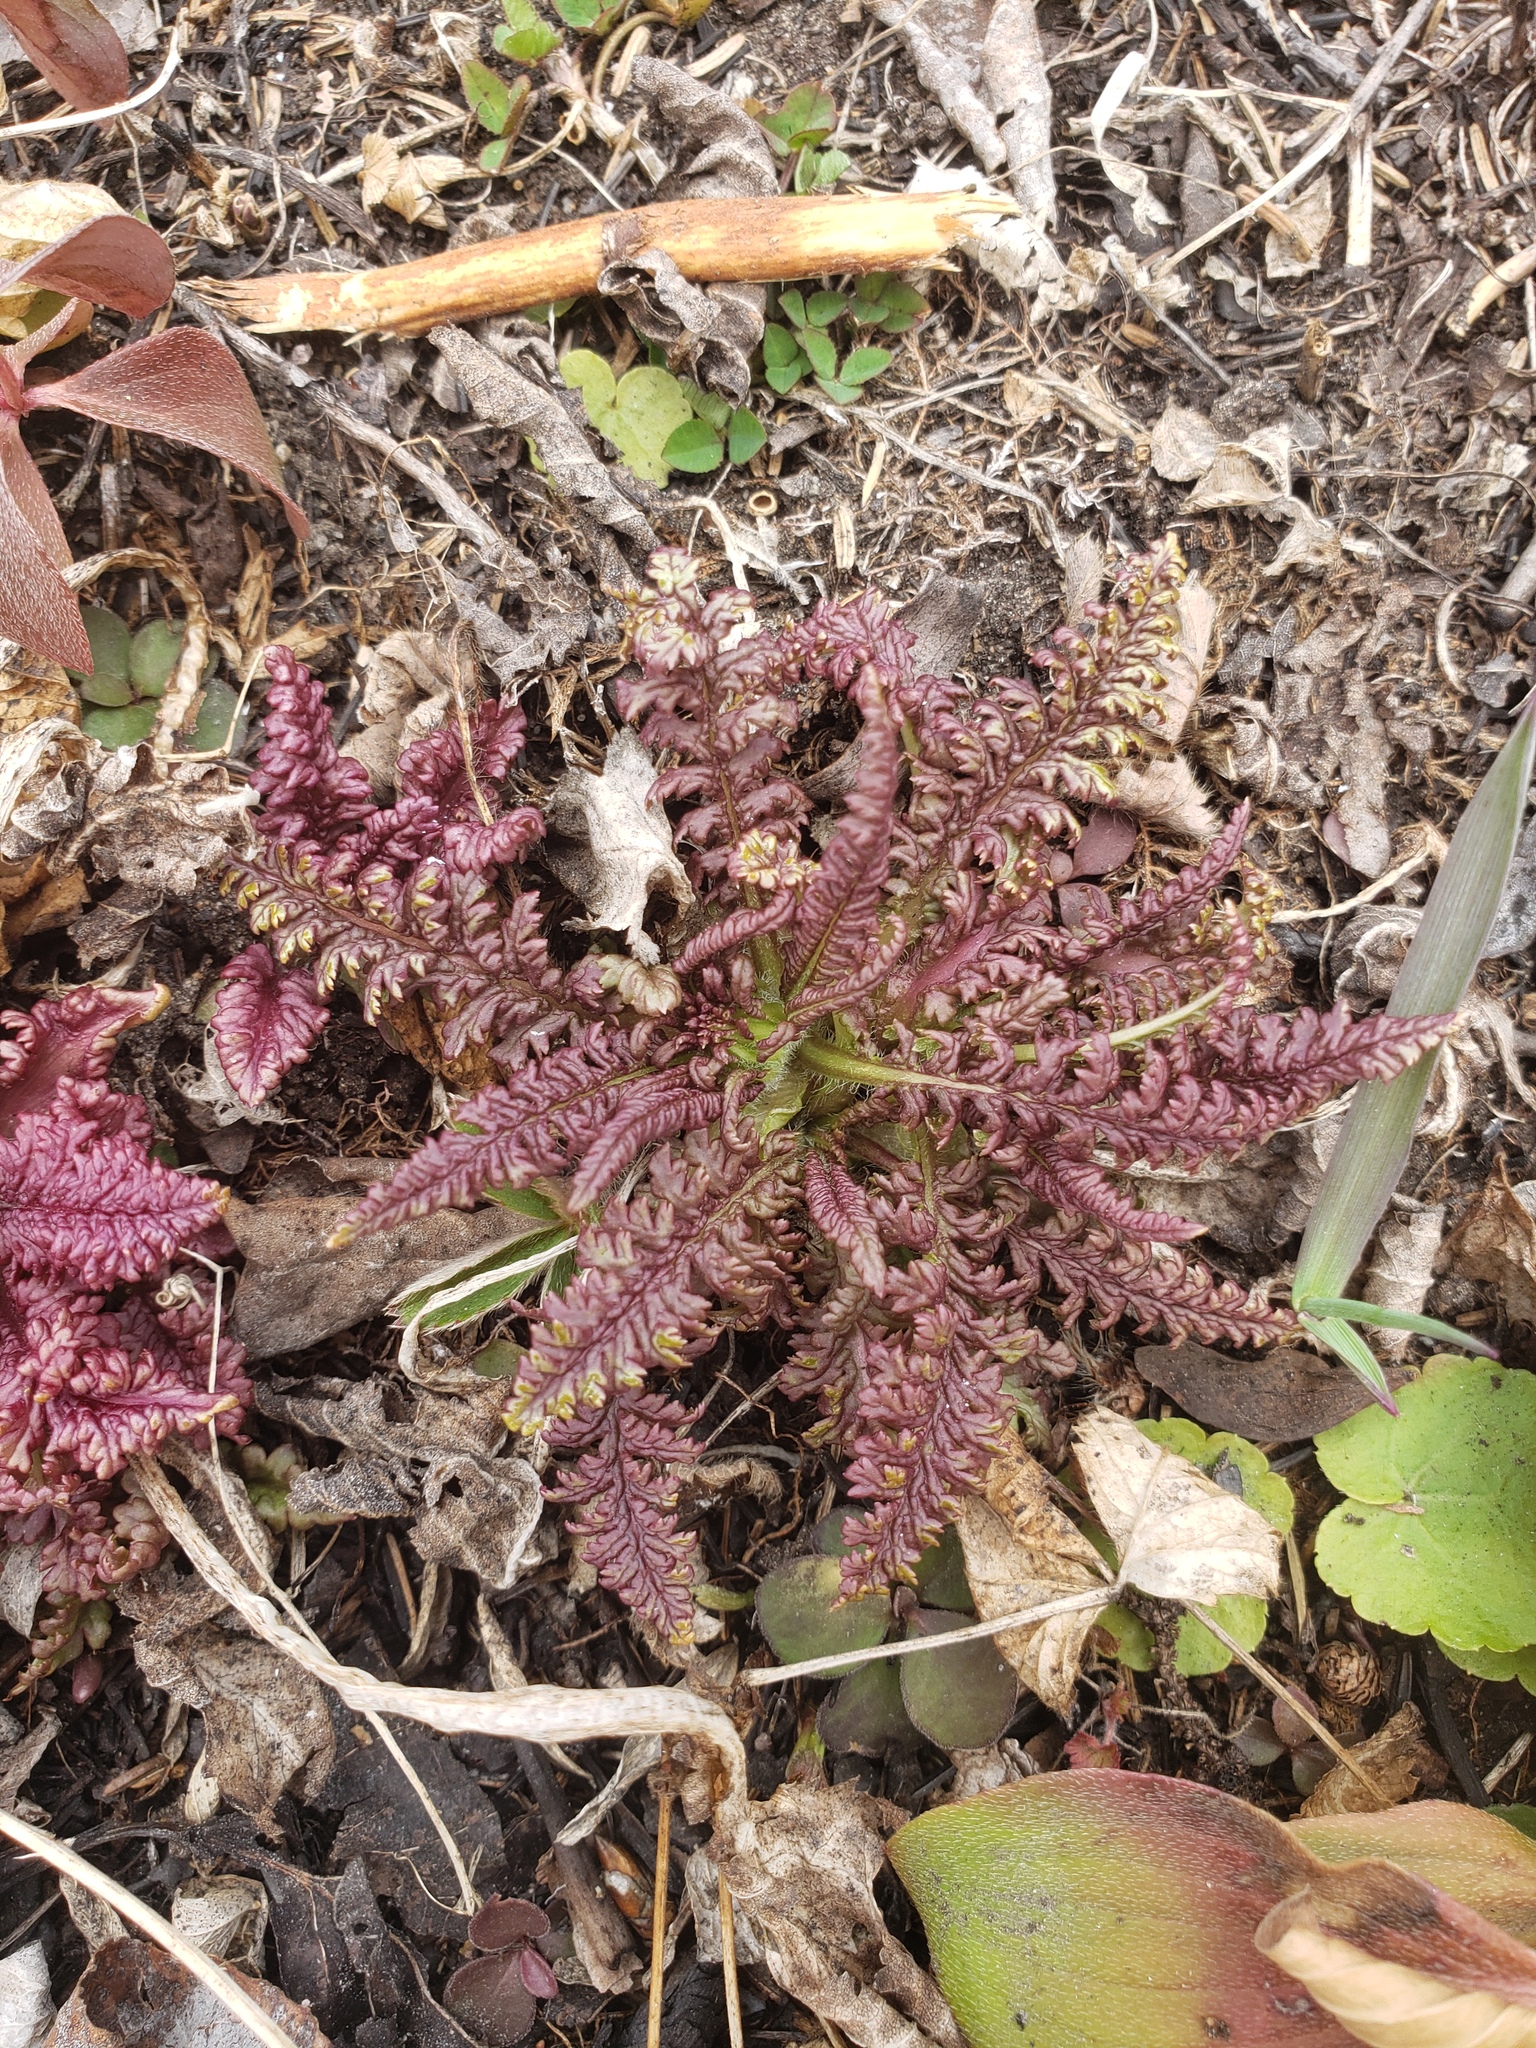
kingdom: Plantae
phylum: Tracheophyta
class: Magnoliopsida
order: Lamiales
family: Orobanchaceae
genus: Pedicularis
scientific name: Pedicularis canadensis
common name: Early lousewort
